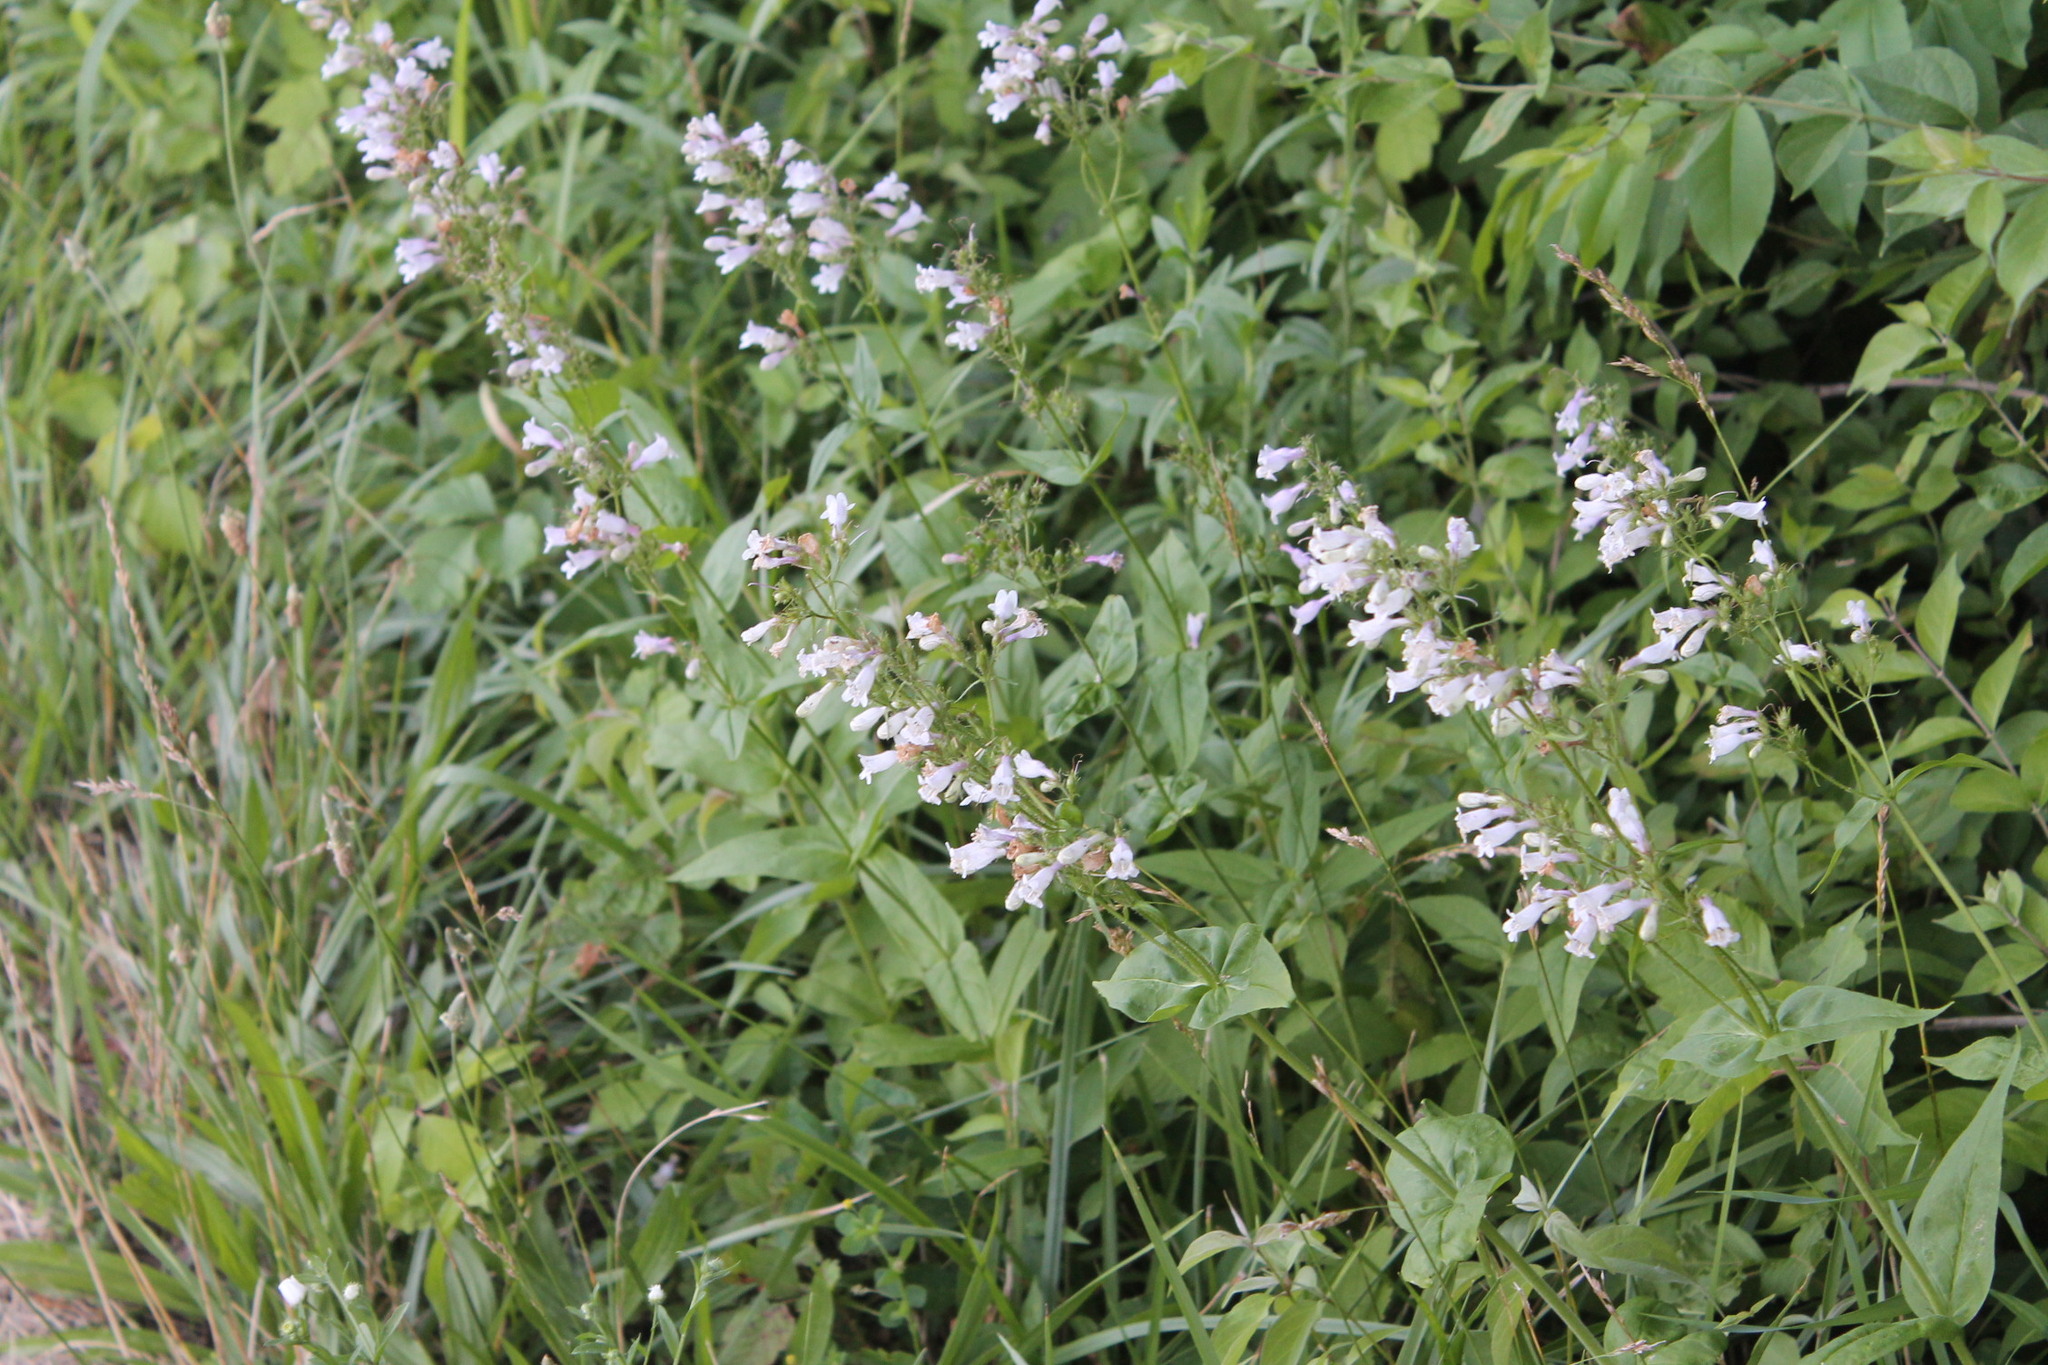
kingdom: Plantae
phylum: Tracheophyta
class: Magnoliopsida
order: Lamiales
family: Plantaginaceae
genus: Penstemon
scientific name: Penstemon digitalis
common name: Foxglove beardtongue
